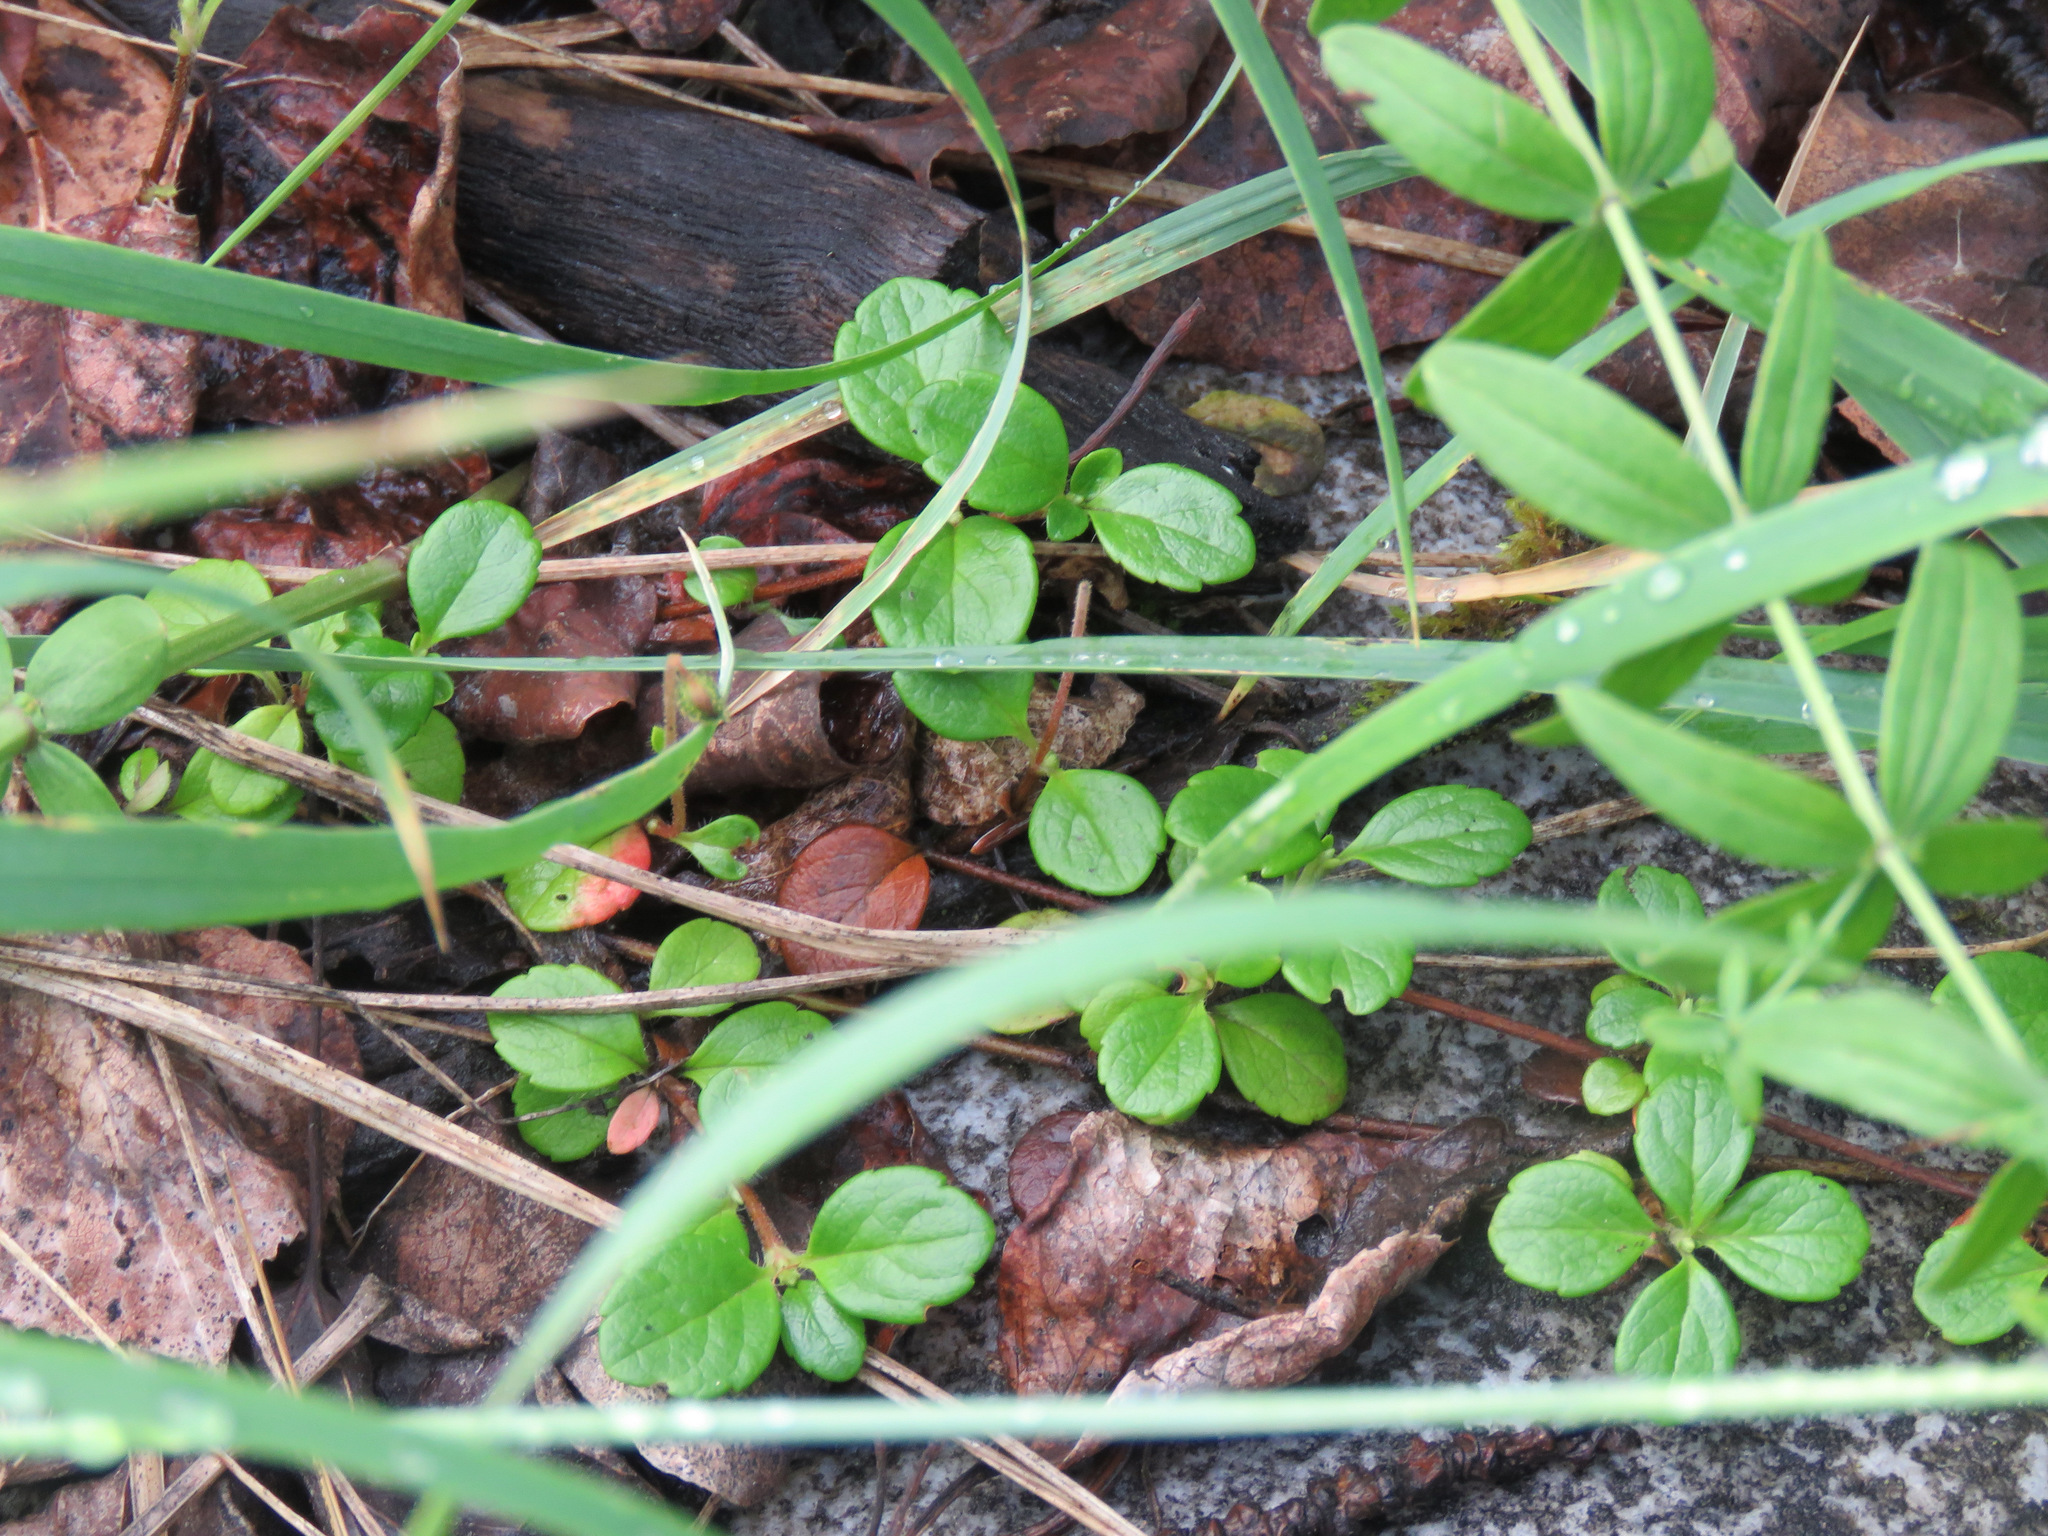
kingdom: Plantae
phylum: Tracheophyta
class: Magnoliopsida
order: Dipsacales
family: Caprifoliaceae
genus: Linnaea
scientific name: Linnaea borealis
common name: Twinflower
